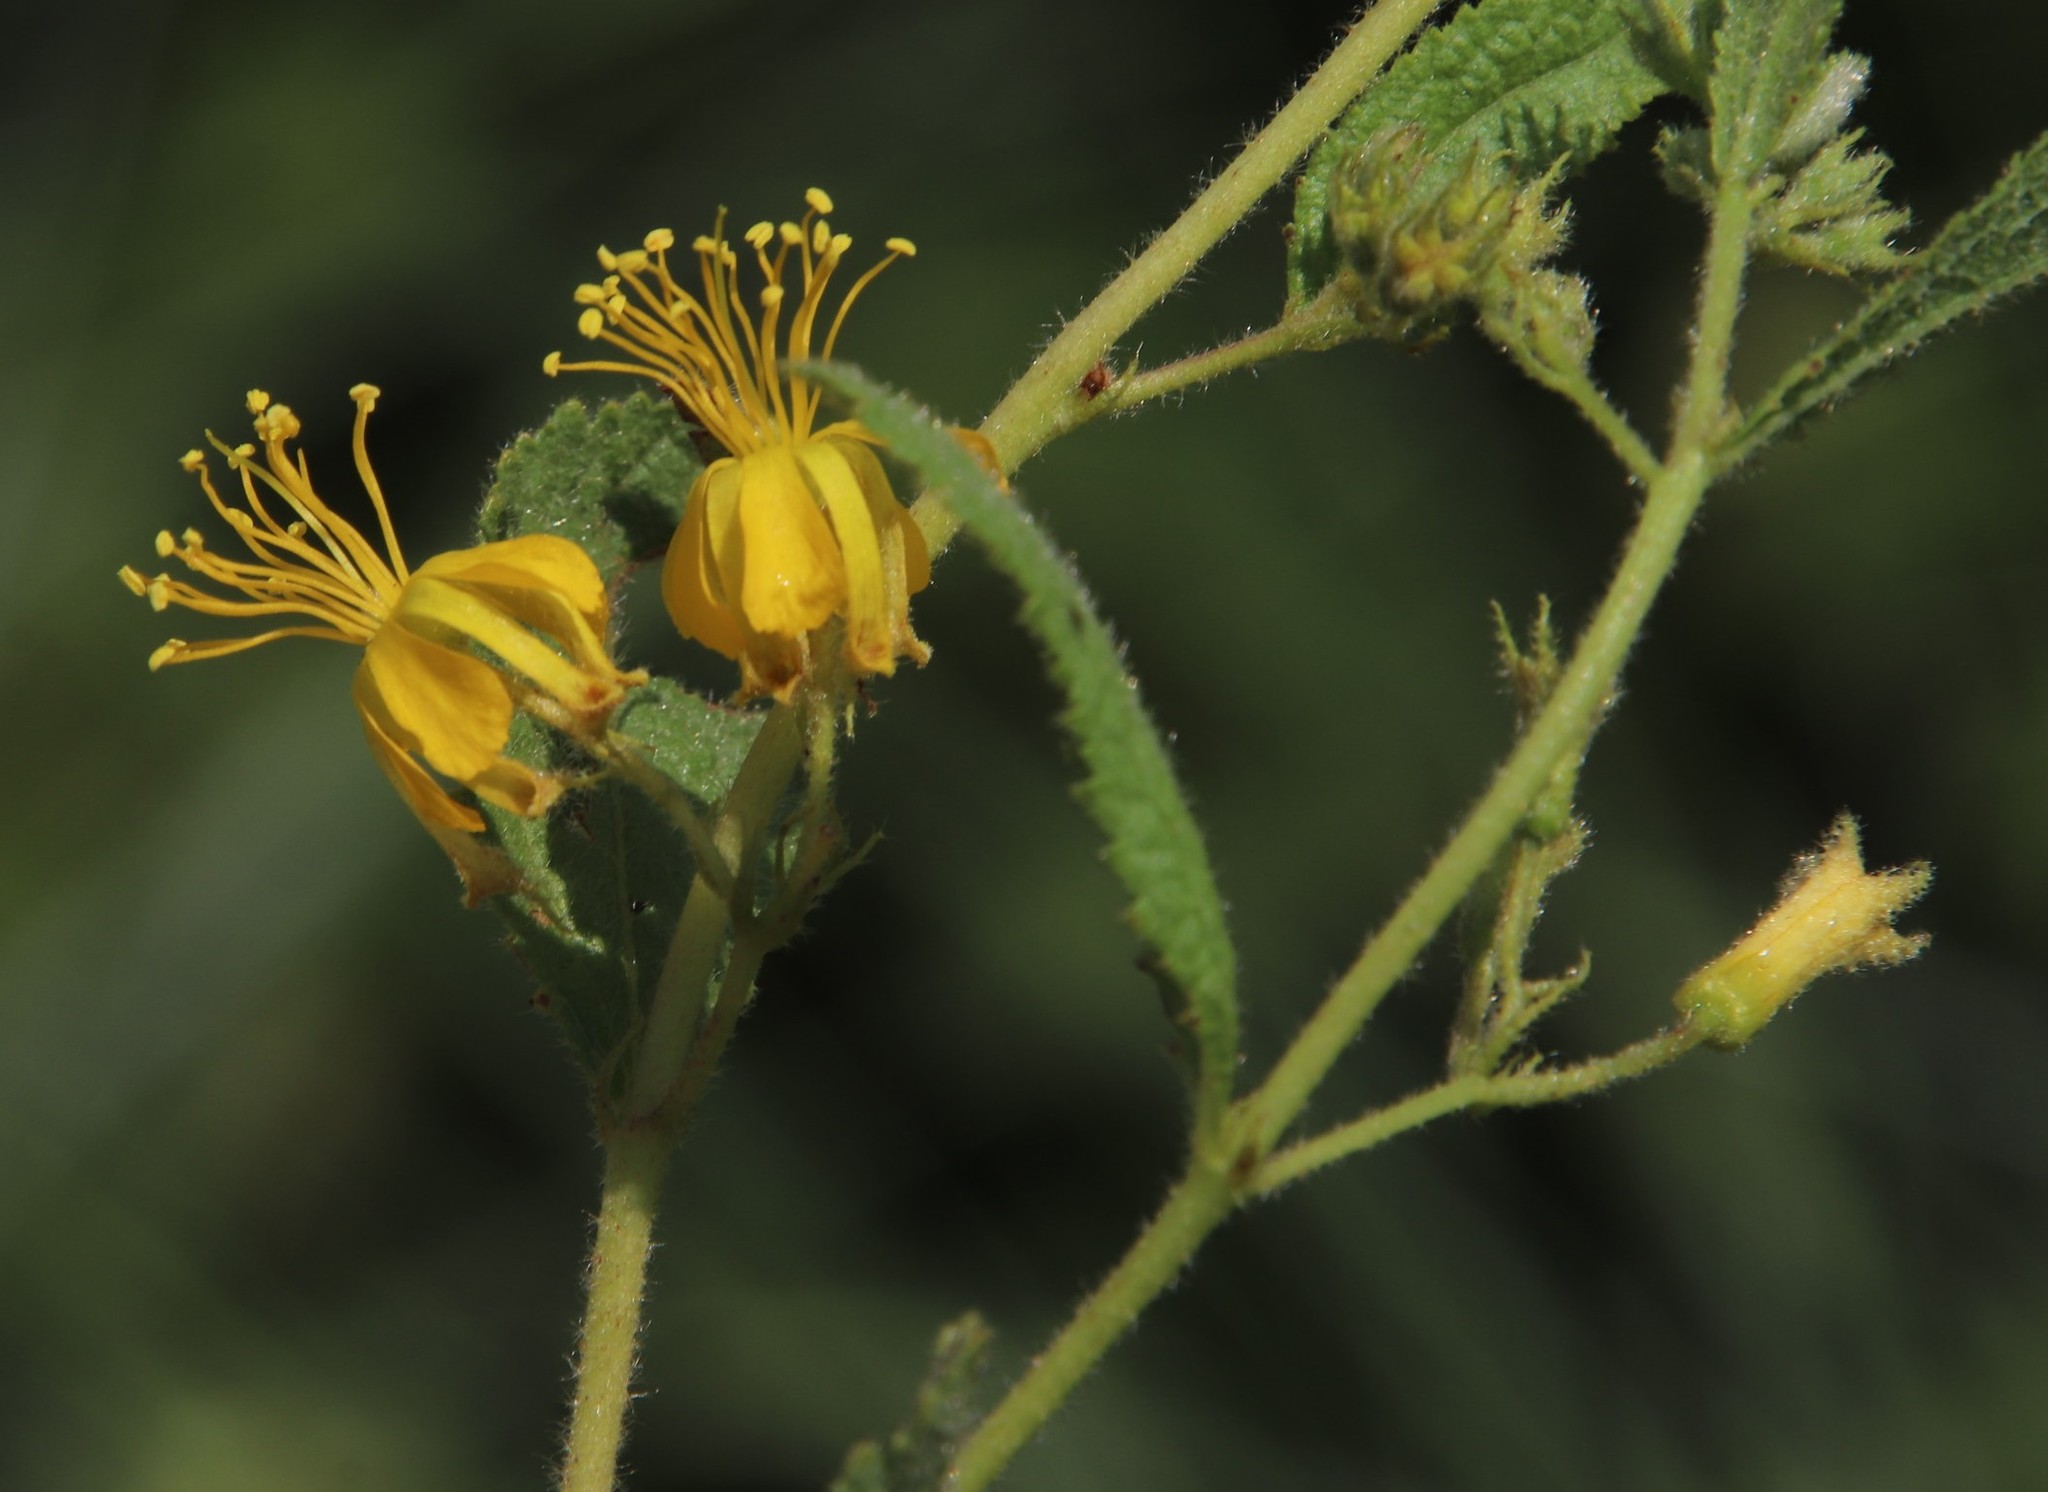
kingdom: Plantae
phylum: Tracheophyta
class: Magnoliopsida
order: Malvales
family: Malvaceae
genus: Triumfetta
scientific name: Triumfetta sonderi
